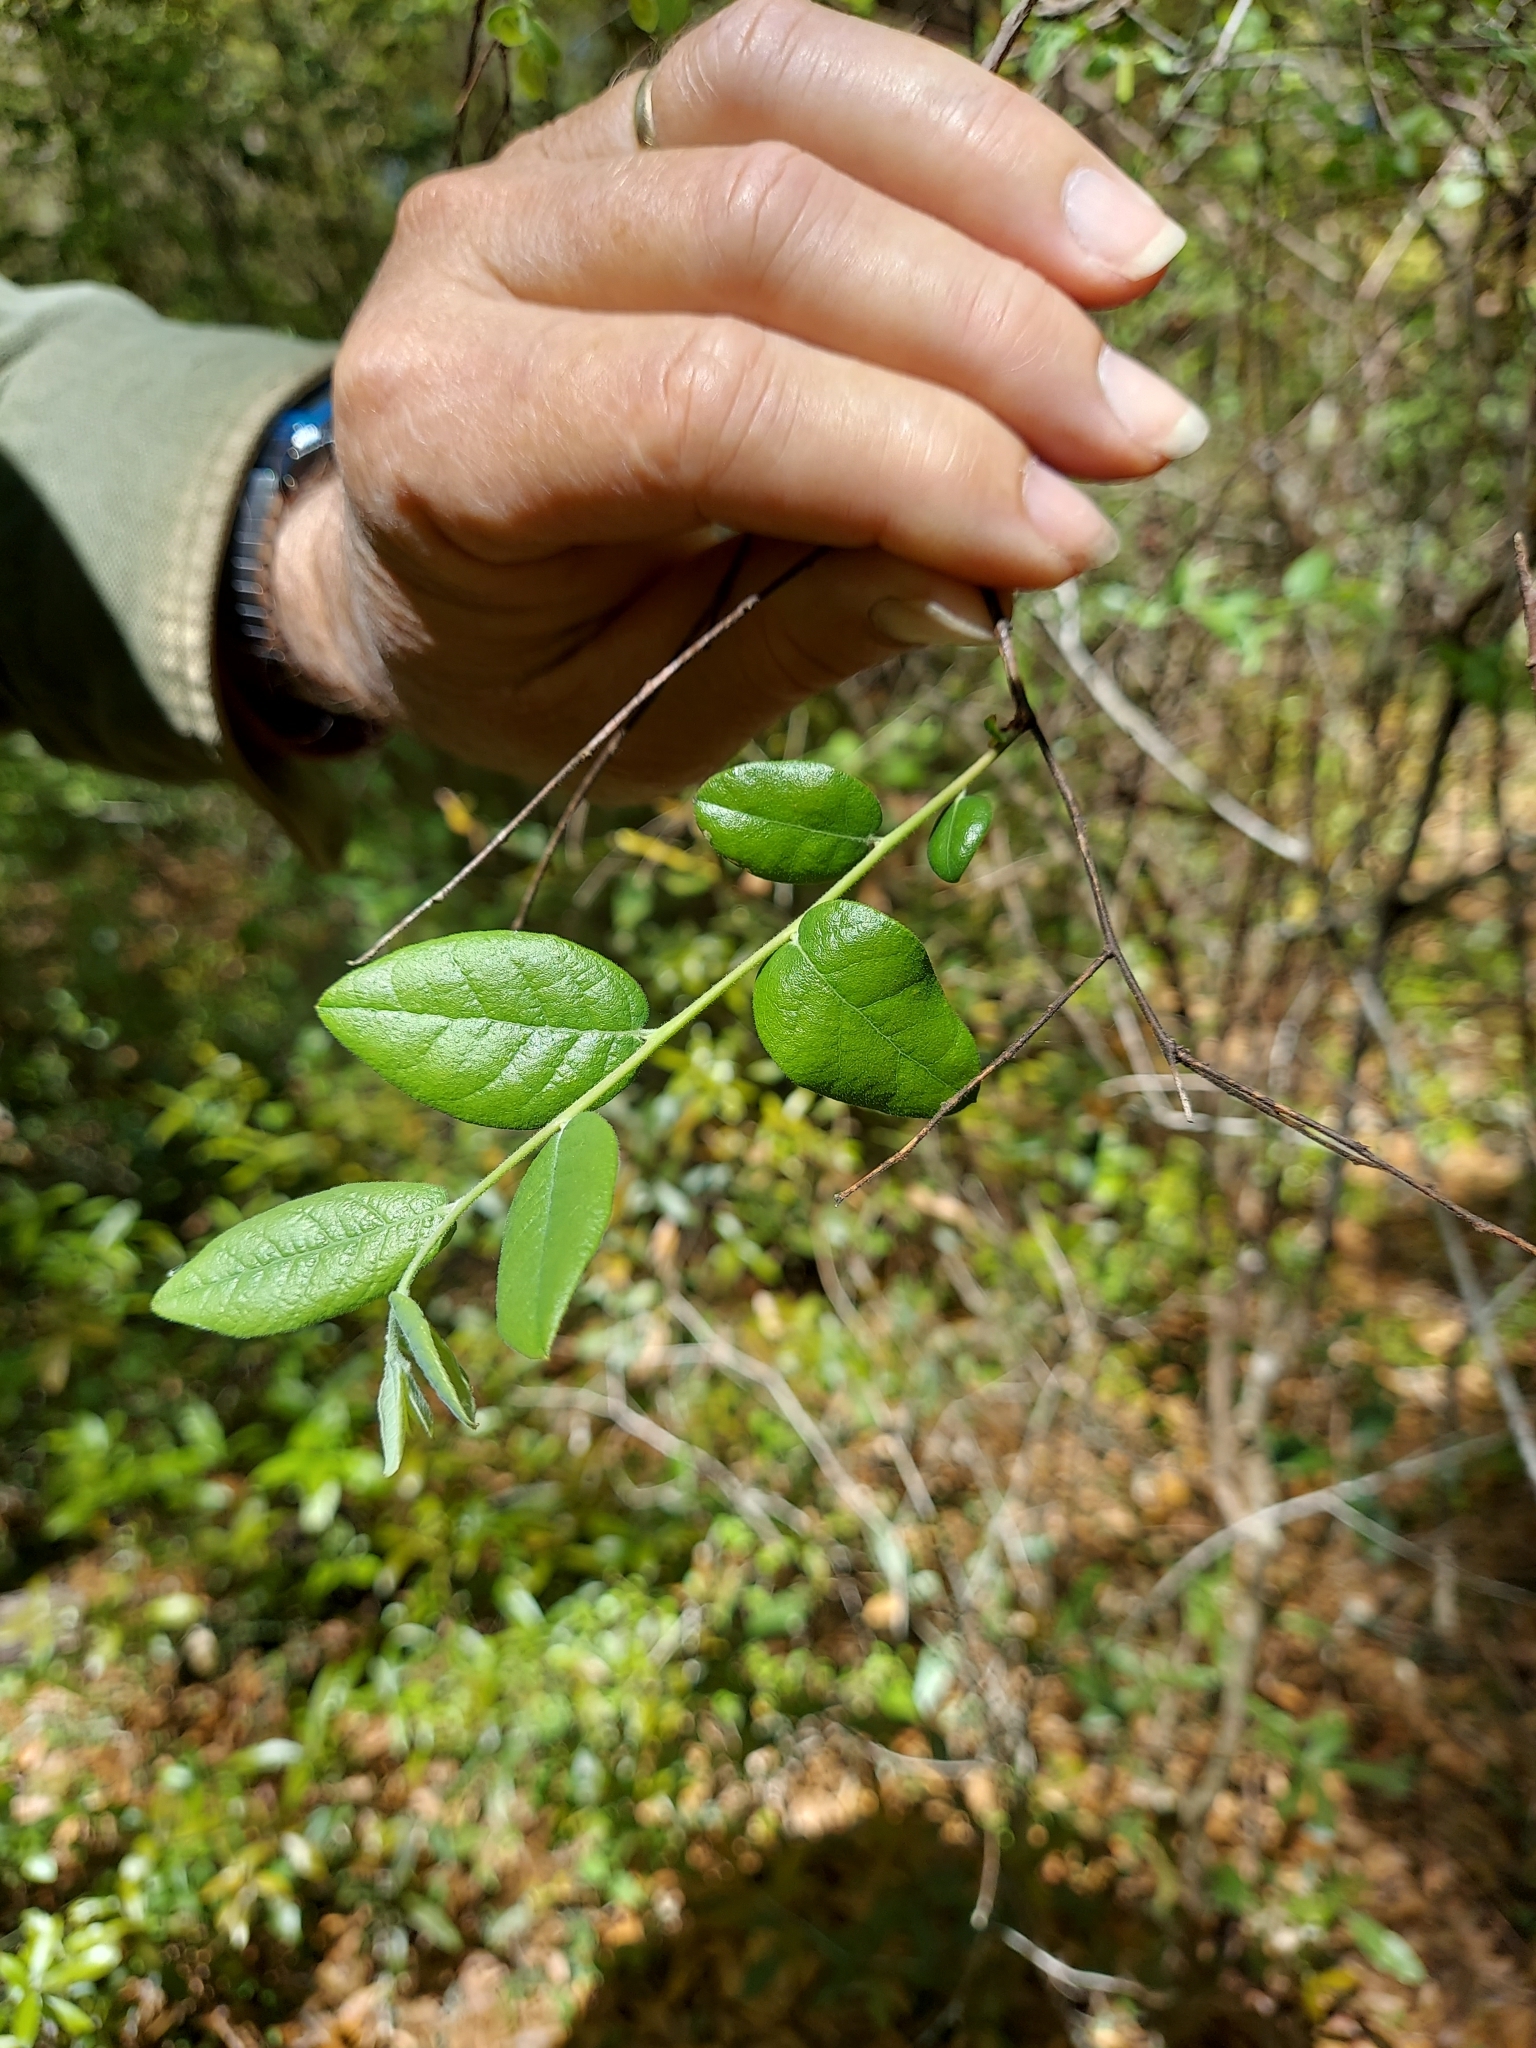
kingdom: Plantae
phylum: Tracheophyta
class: Magnoliopsida
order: Ericales
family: Ericaceae
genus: Vaccinium
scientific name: Vaccinium stamineum
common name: Deerberry
